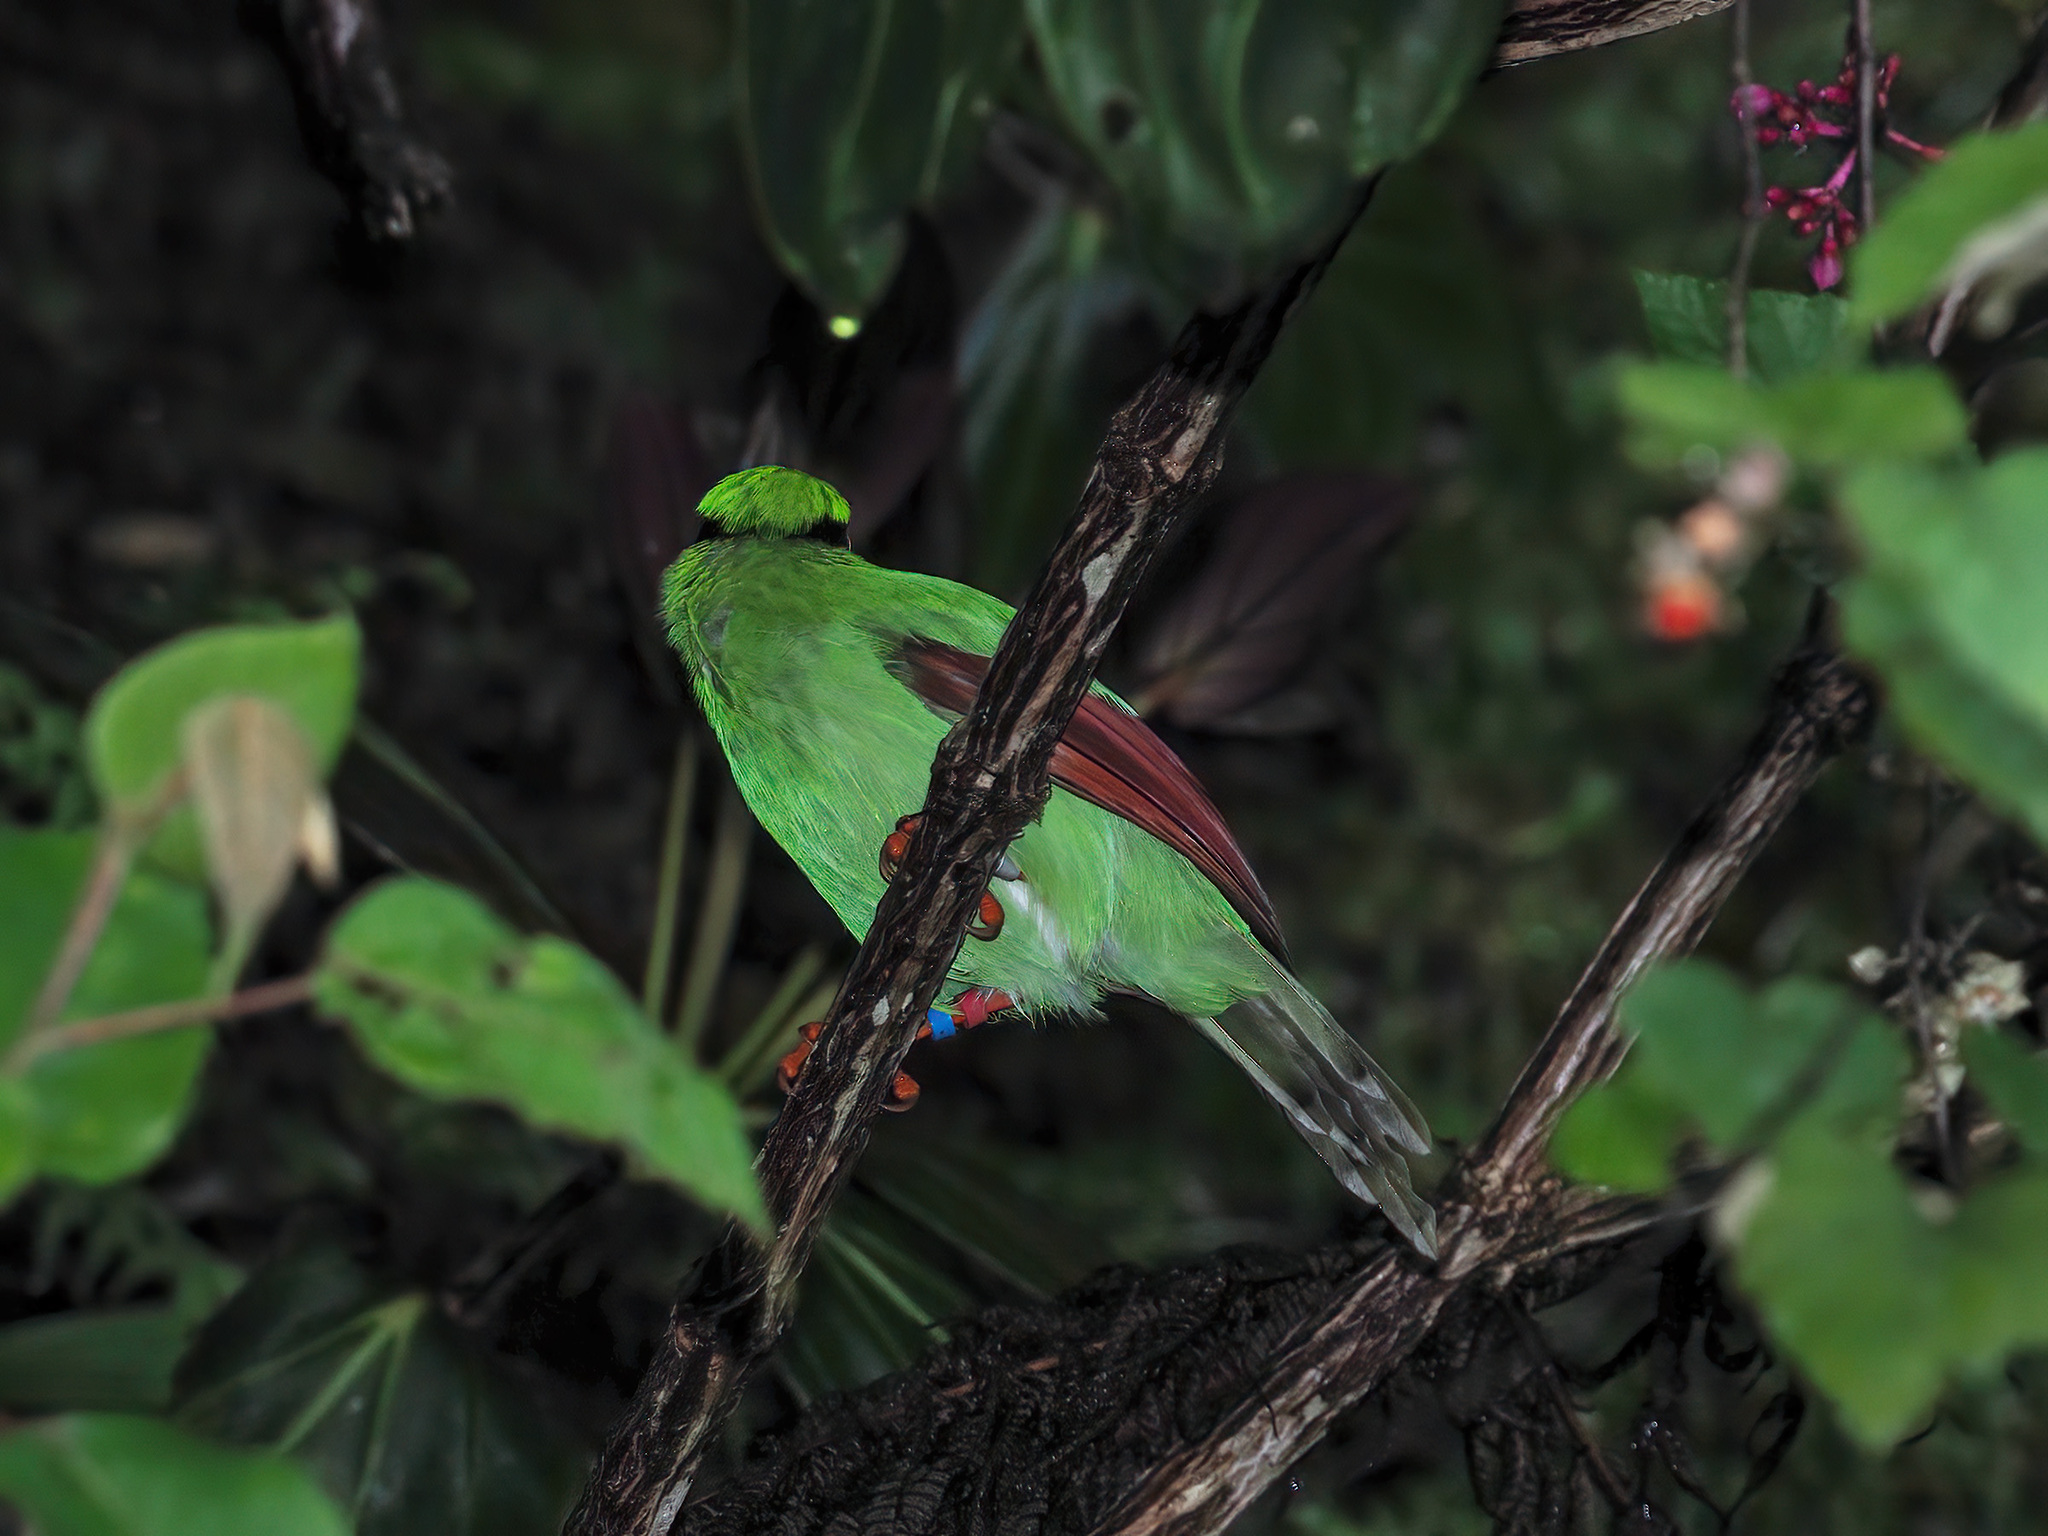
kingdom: Animalia
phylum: Chordata
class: Aves
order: Passeriformes
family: Corvidae
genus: Cissa
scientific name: Cissa jefferyi
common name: Bornean green magpie
